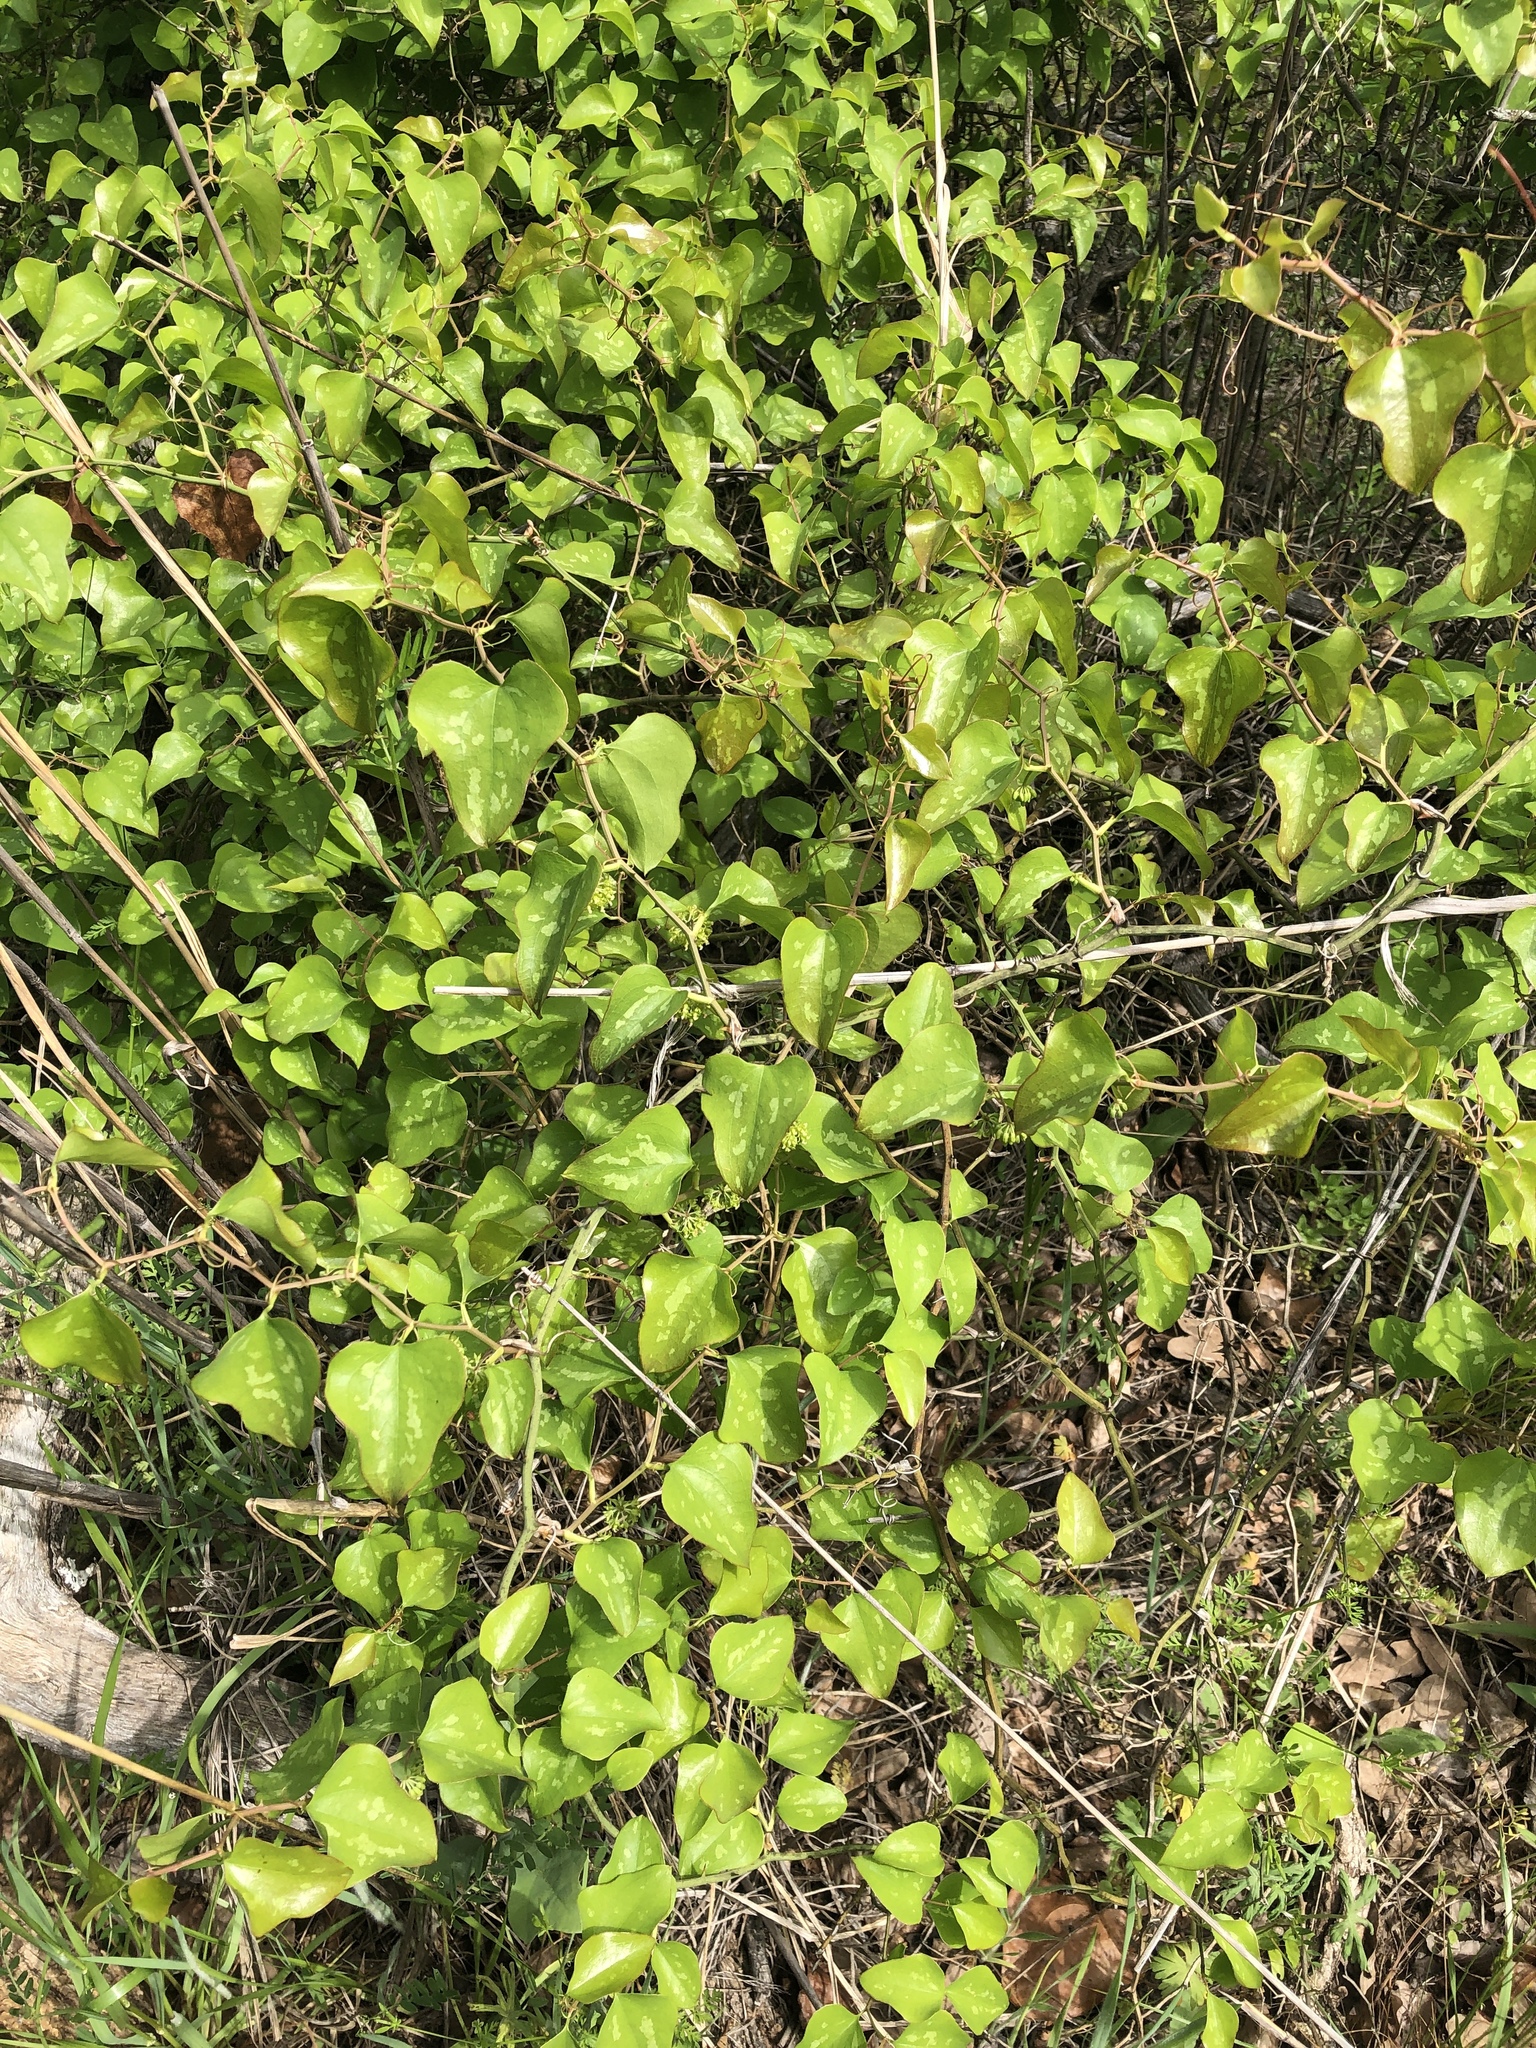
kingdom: Plantae
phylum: Tracheophyta
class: Liliopsida
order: Liliales
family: Smilacaceae
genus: Smilax
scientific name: Smilax bona-nox
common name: Catbrier
